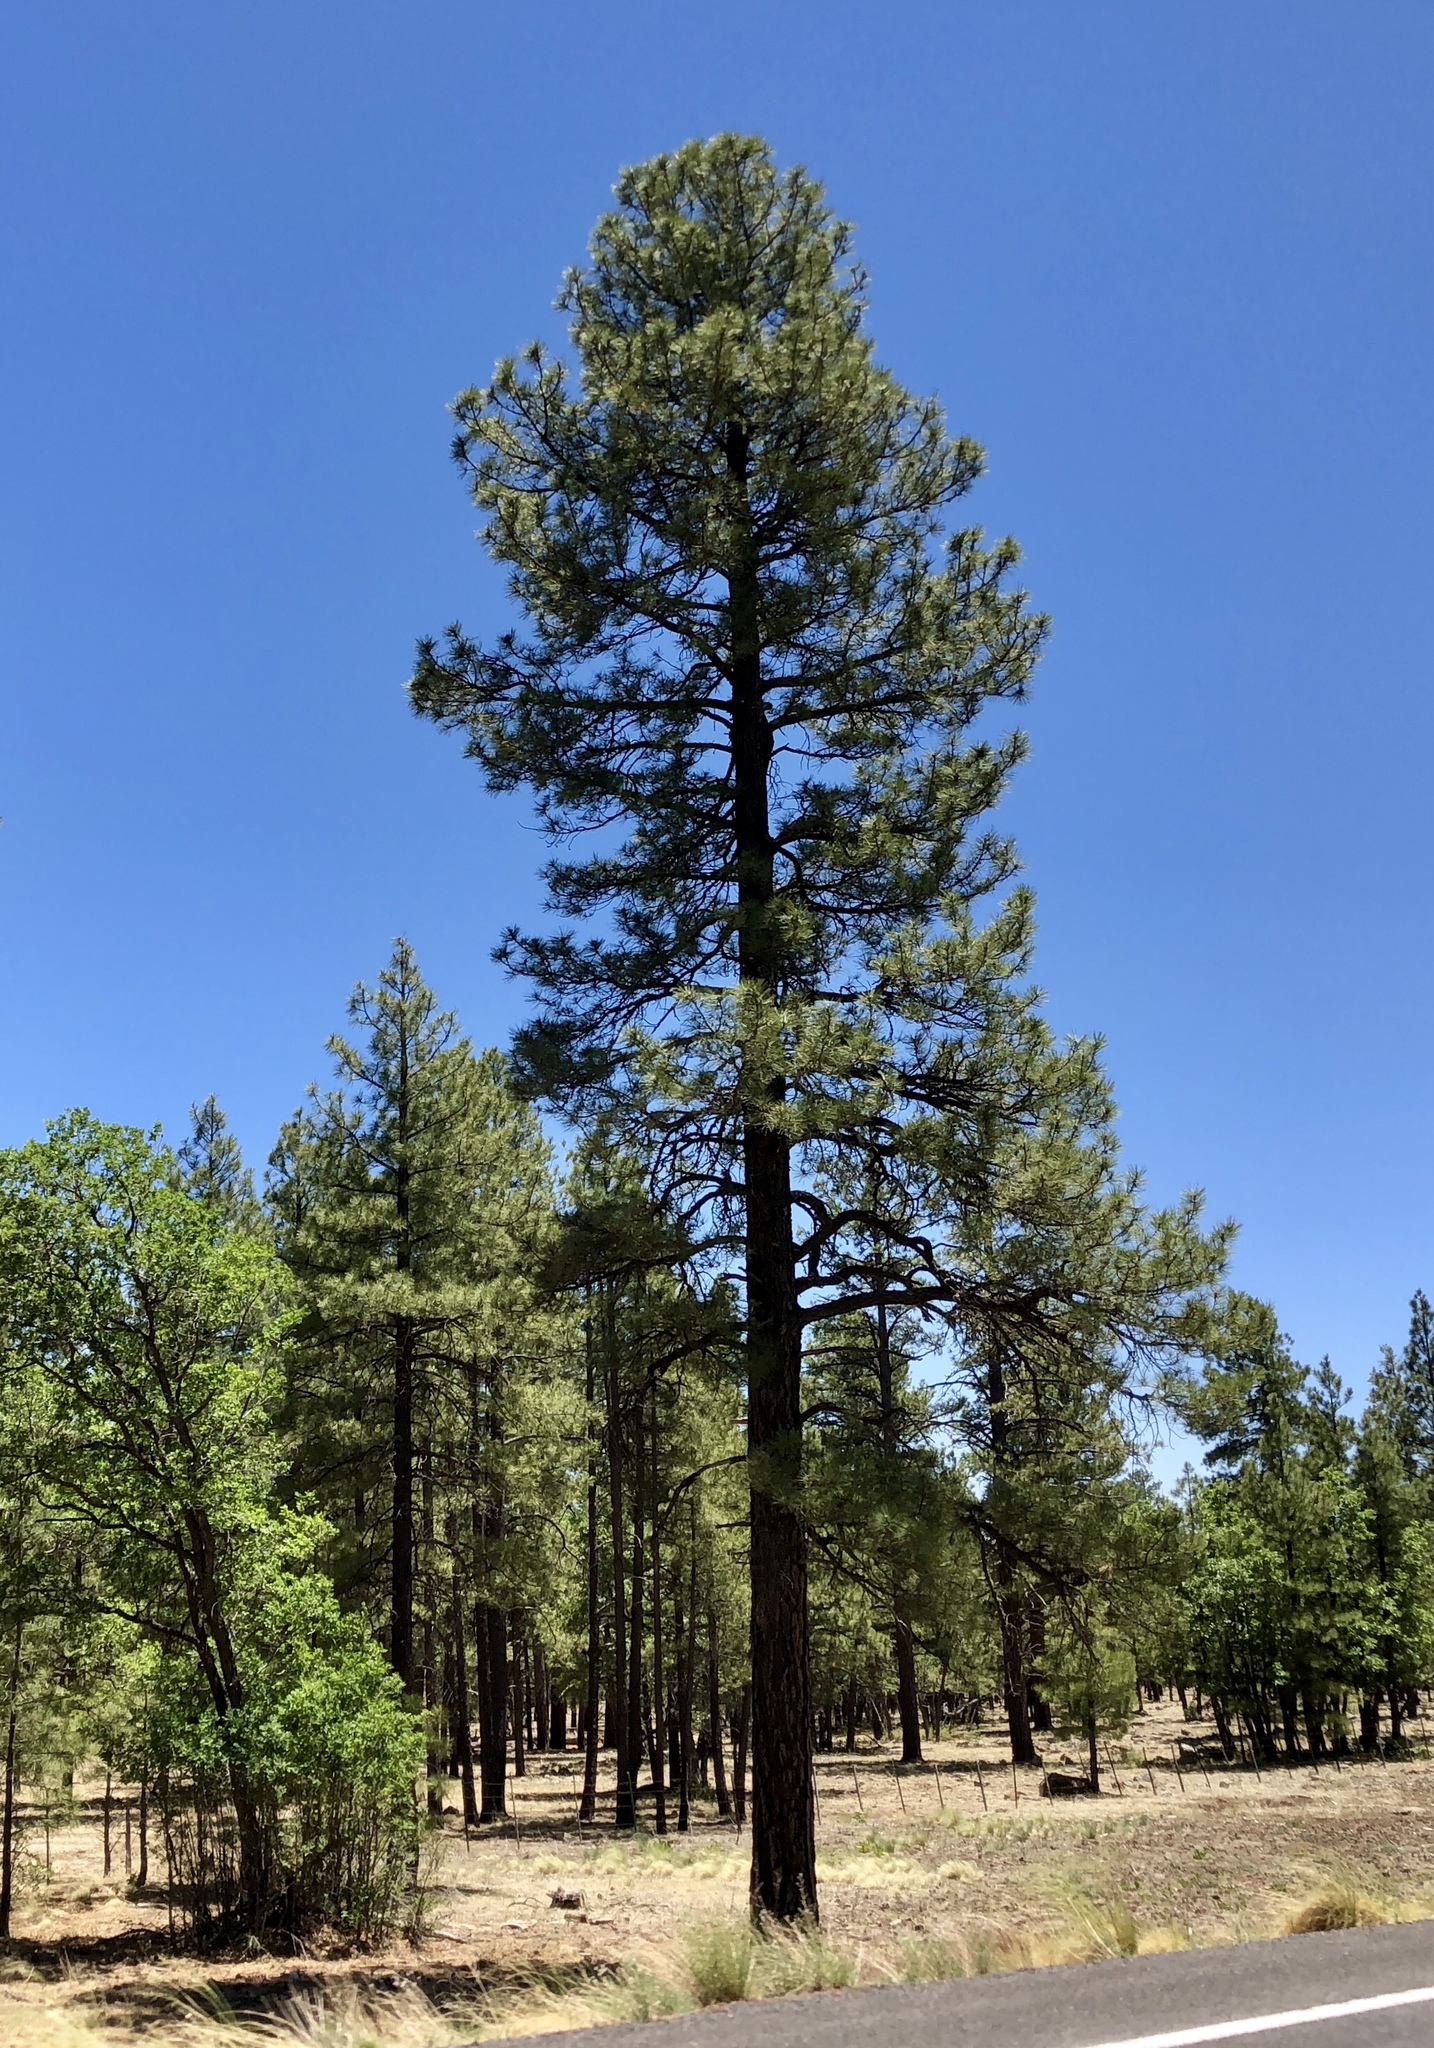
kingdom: Plantae
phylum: Tracheophyta
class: Pinopsida
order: Pinales
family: Pinaceae
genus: Pinus
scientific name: Pinus ponderosa
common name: Western yellow-pine
